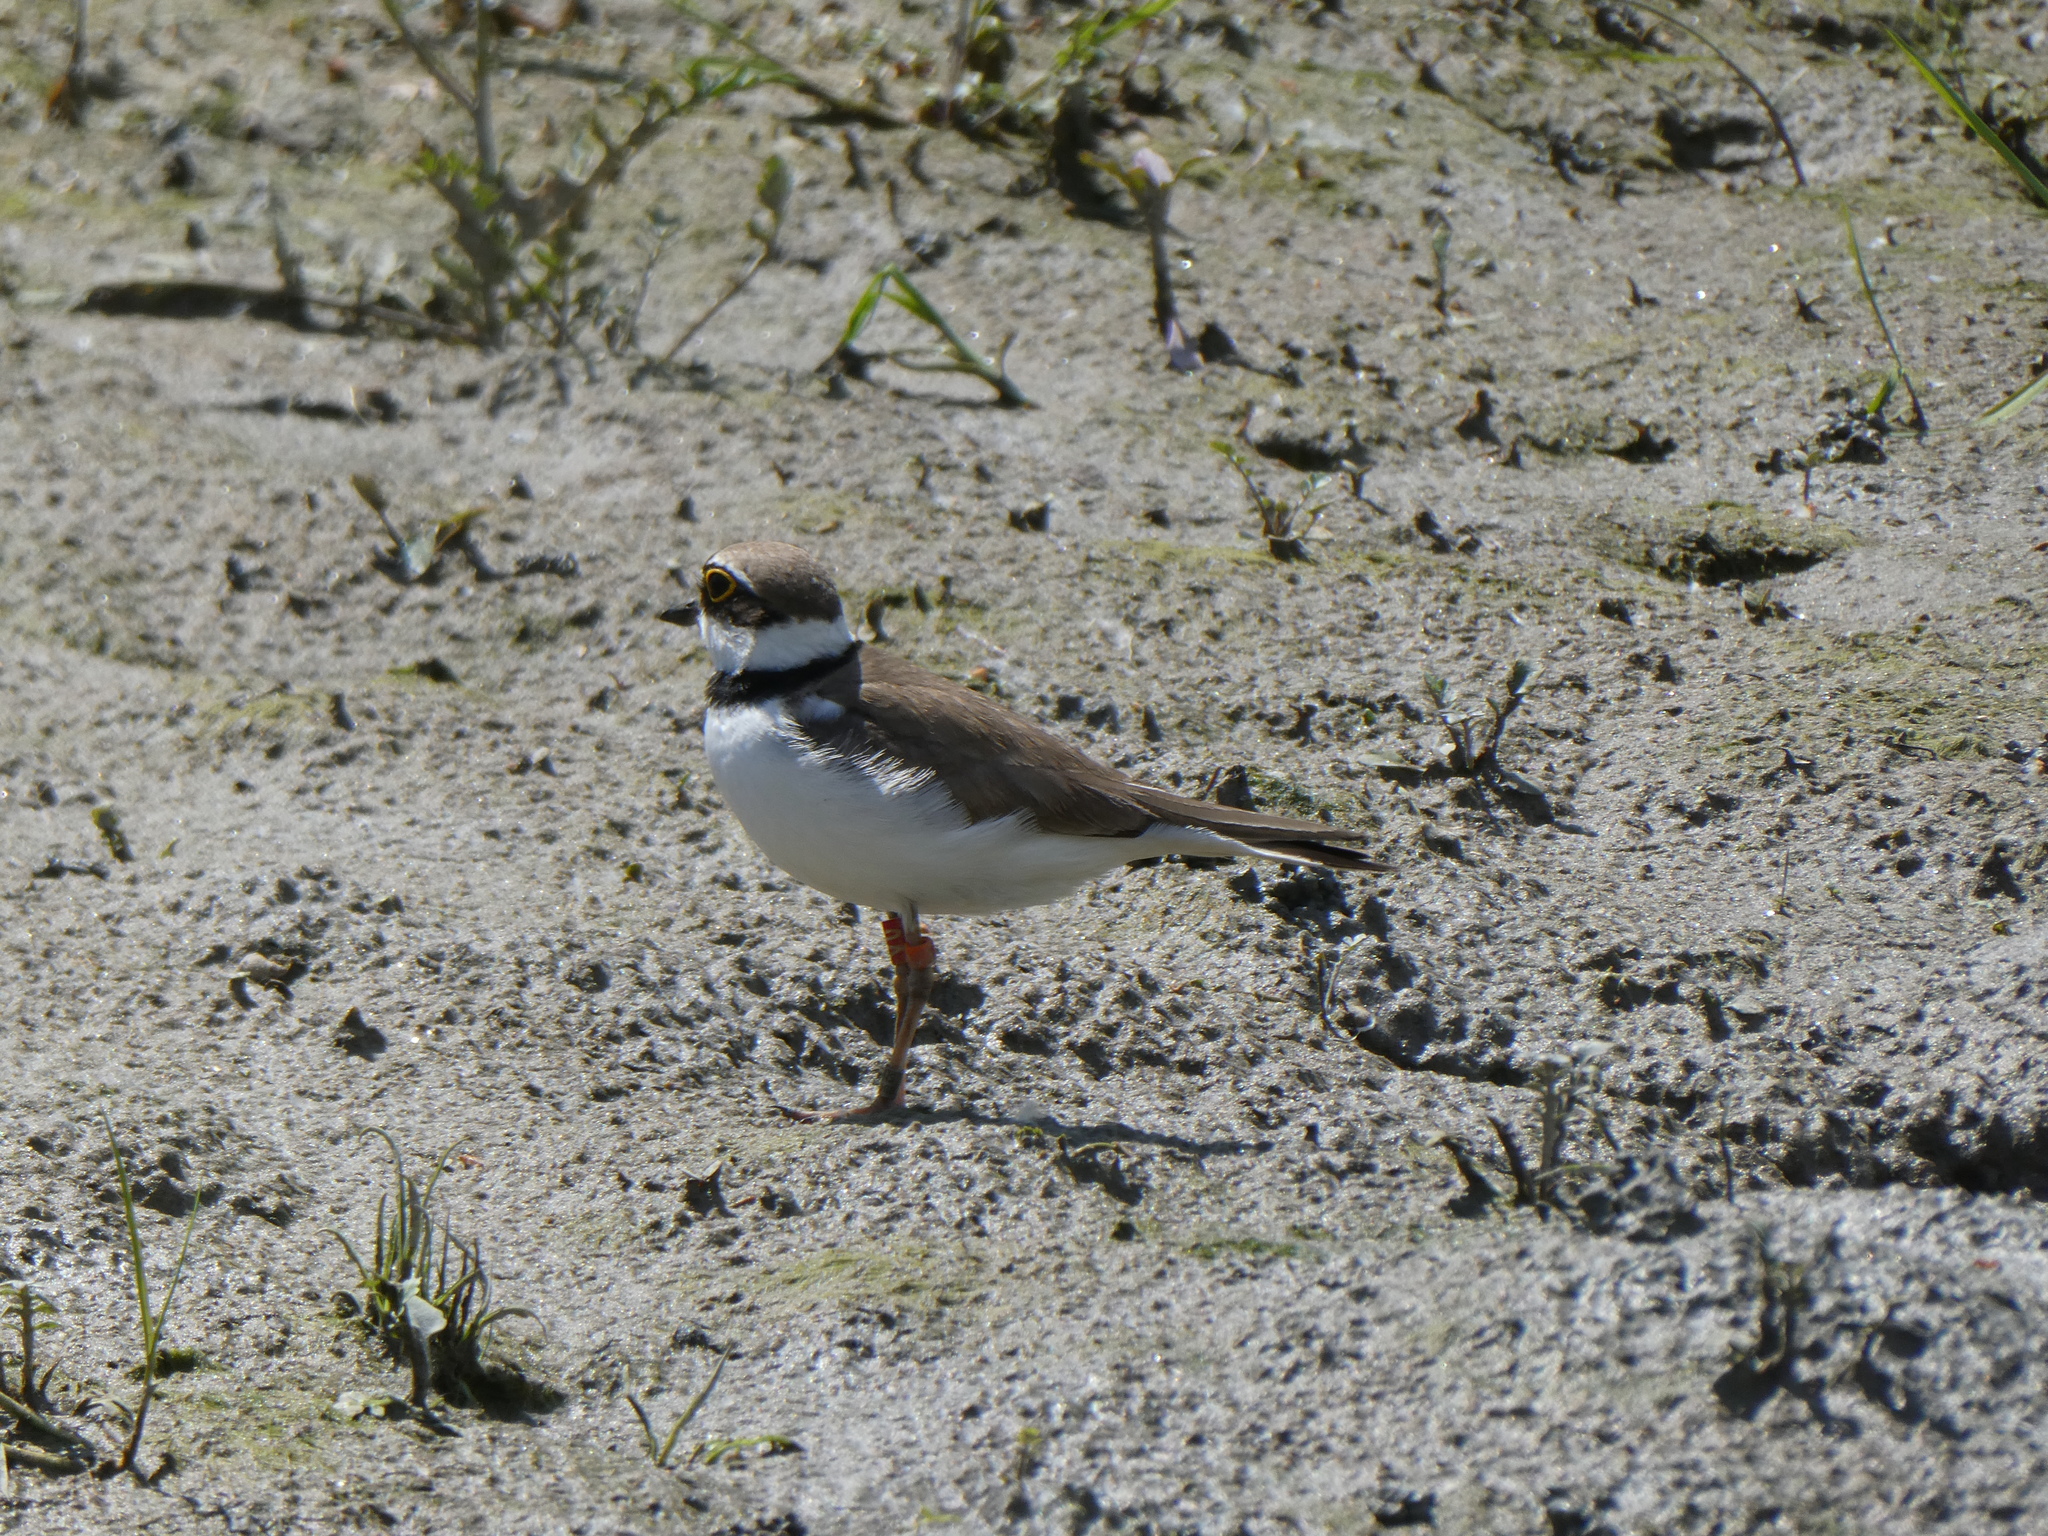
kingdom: Animalia
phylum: Chordata
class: Aves
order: Charadriiformes
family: Charadriidae
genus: Charadrius
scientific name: Charadrius dubius
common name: Little ringed plover
